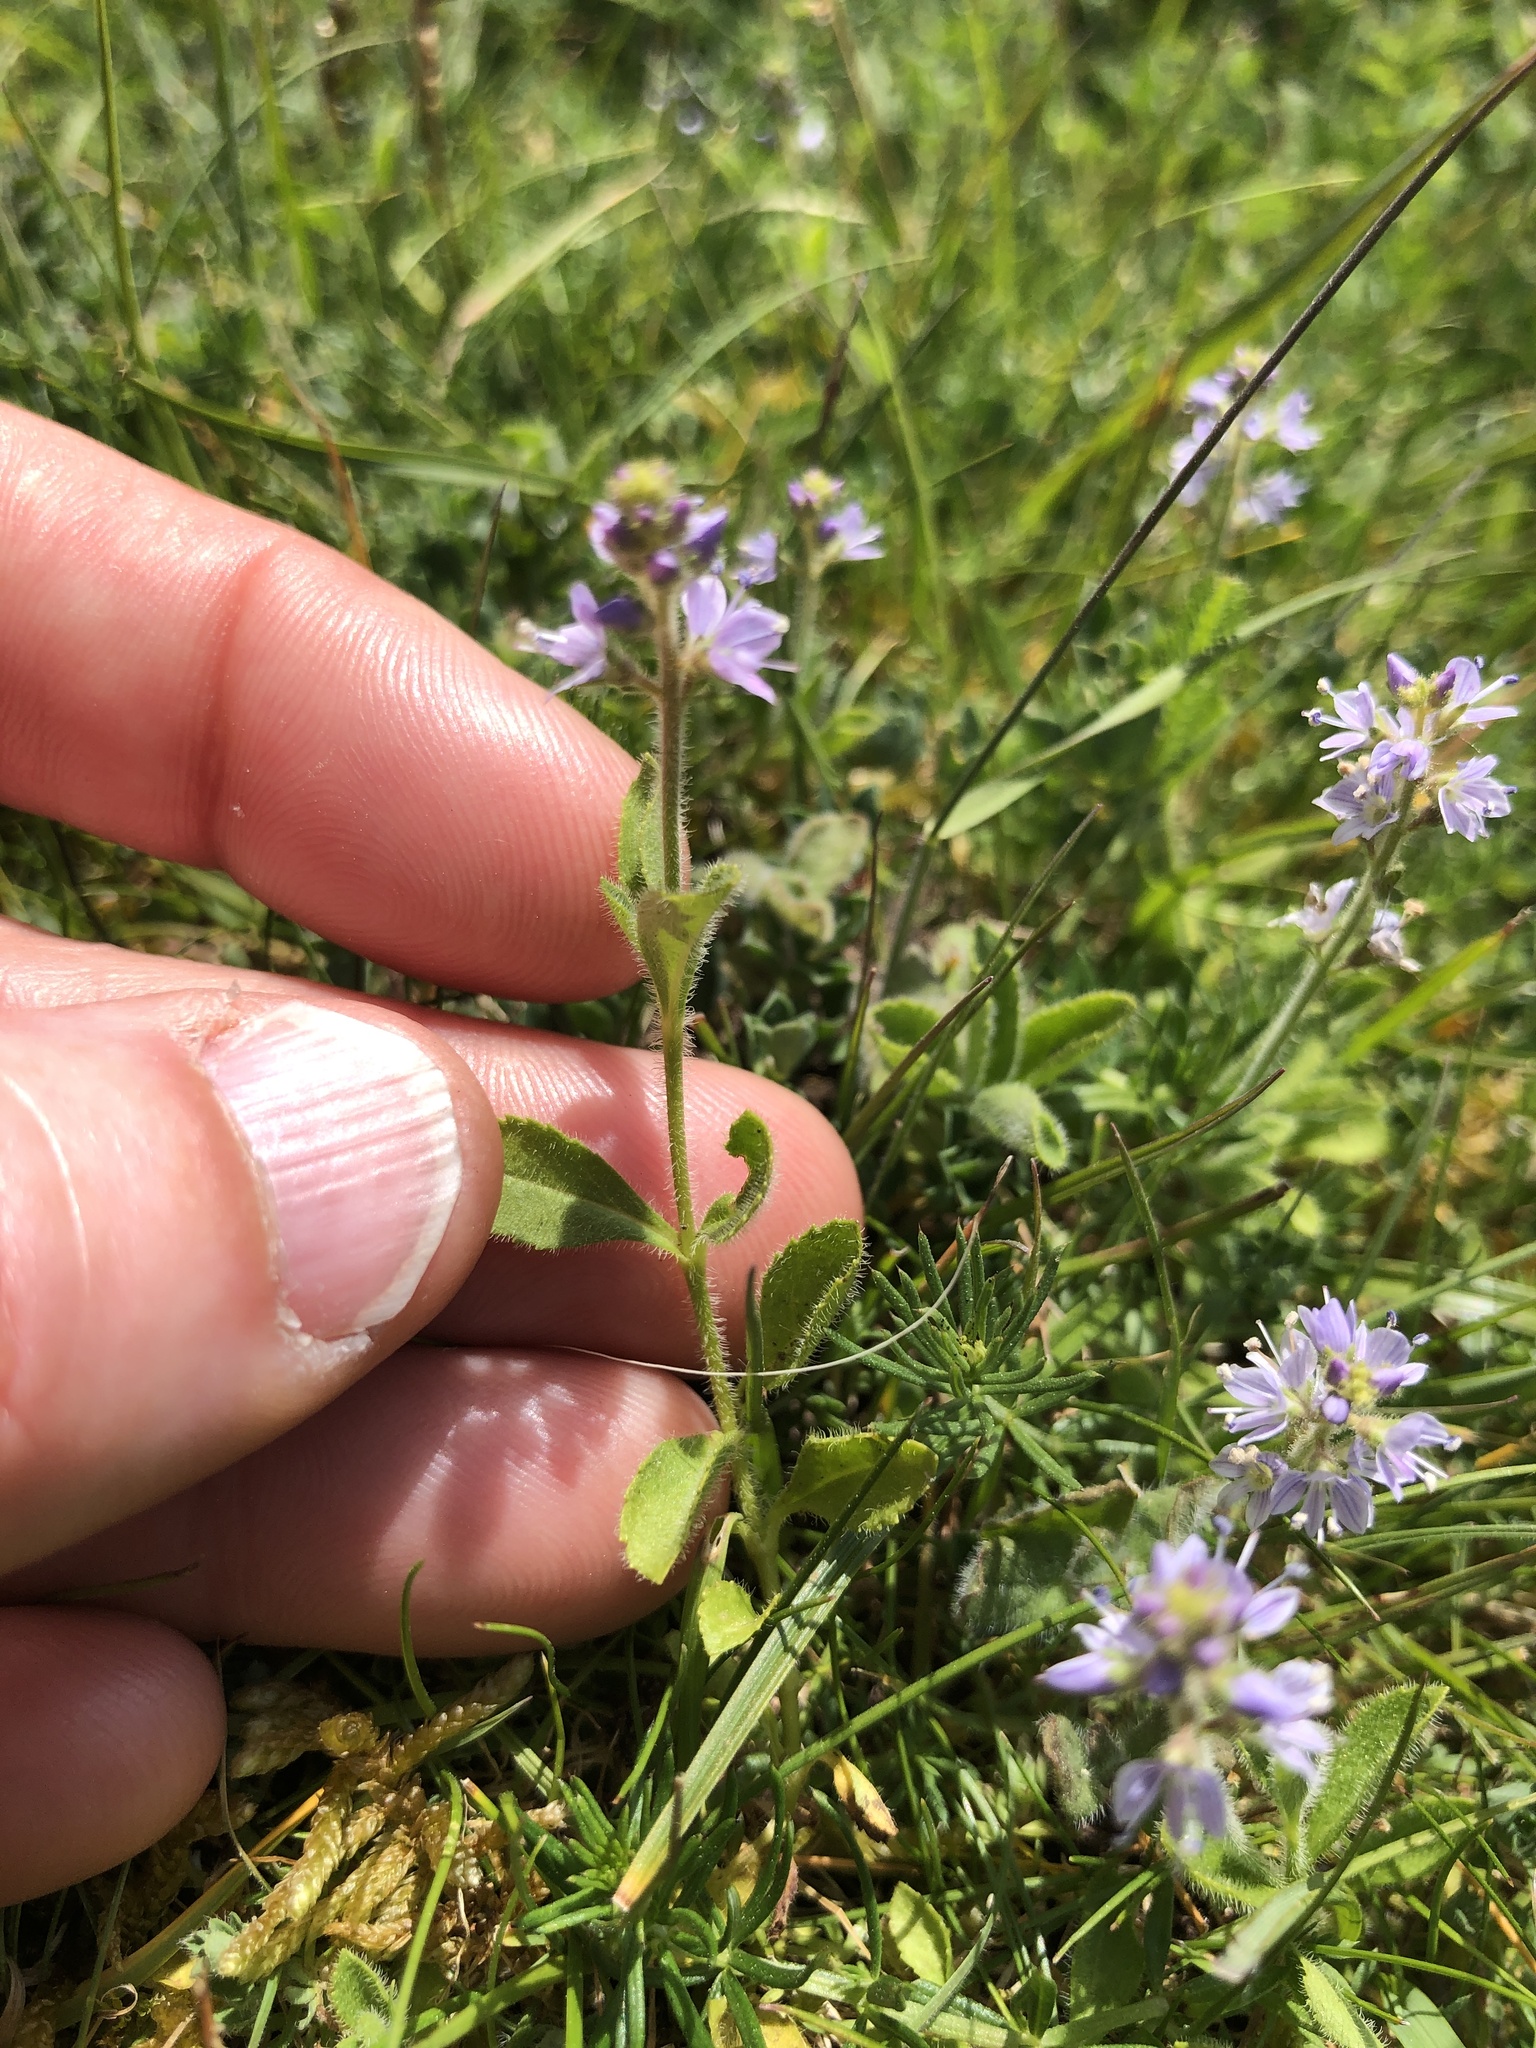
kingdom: Plantae
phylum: Tracheophyta
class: Magnoliopsida
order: Lamiales
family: Plantaginaceae
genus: Veronica
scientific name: Veronica officinalis
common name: Common speedwell
